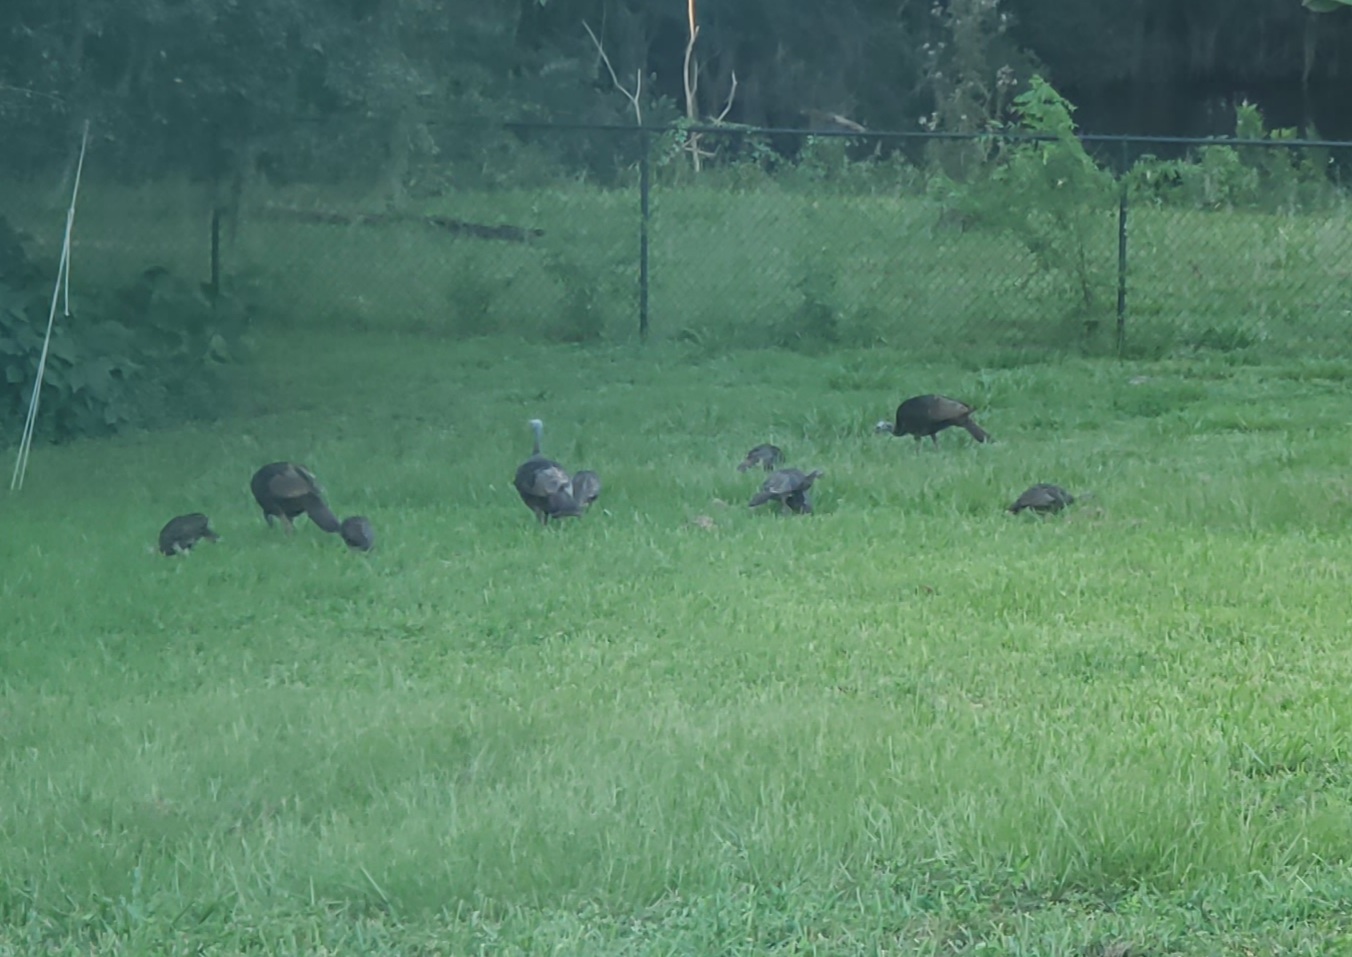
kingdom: Animalia
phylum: Chordata
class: Aves
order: Galliformes
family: Phasianidae
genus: Meleagris
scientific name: Meleagris gallopavo
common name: Wild turkey
